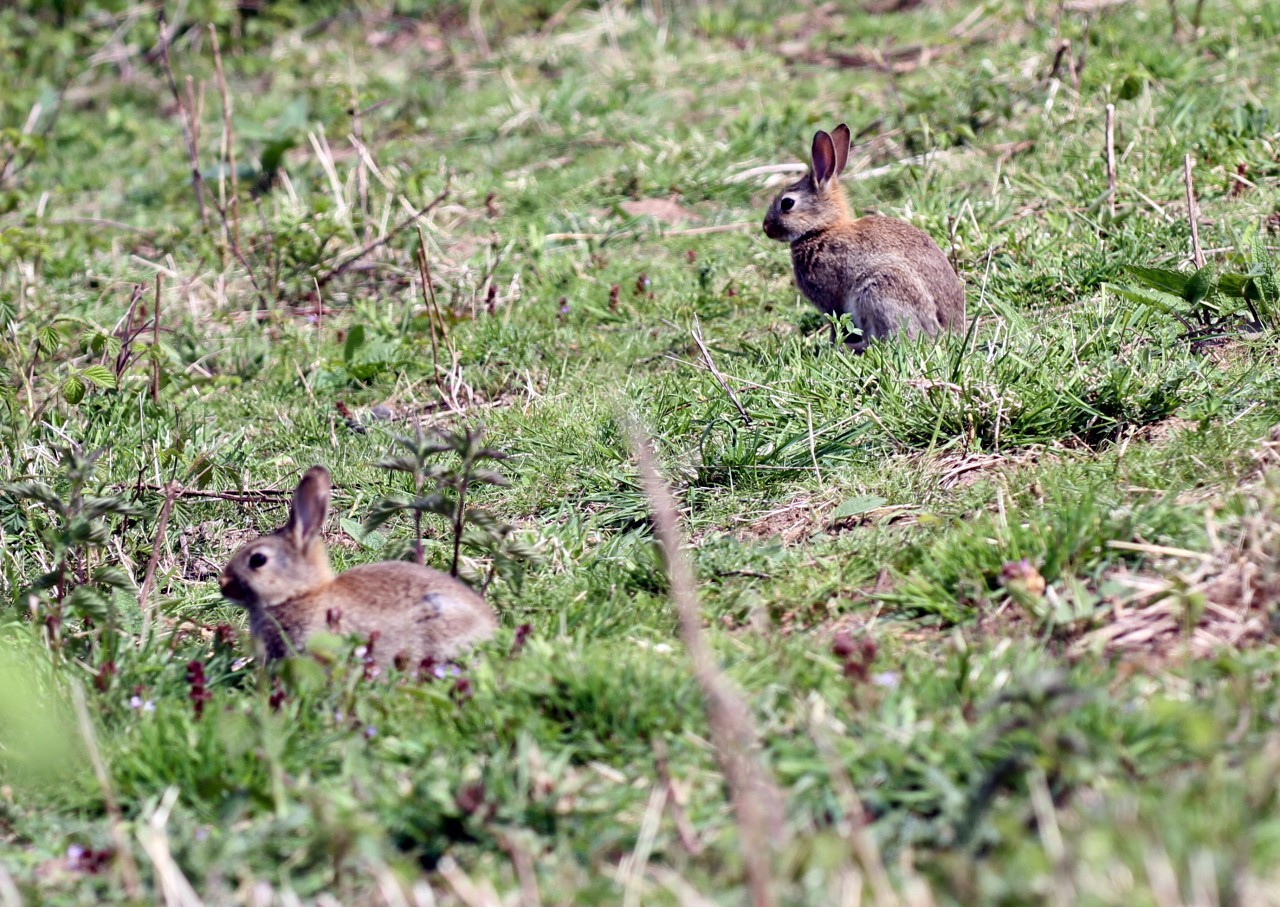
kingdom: Animalia
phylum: Chordata
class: Mammalia
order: Lagomorpha
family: Leporidae
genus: Oryctolagus
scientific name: Oryctolagus cuniculus
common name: European rabbit
